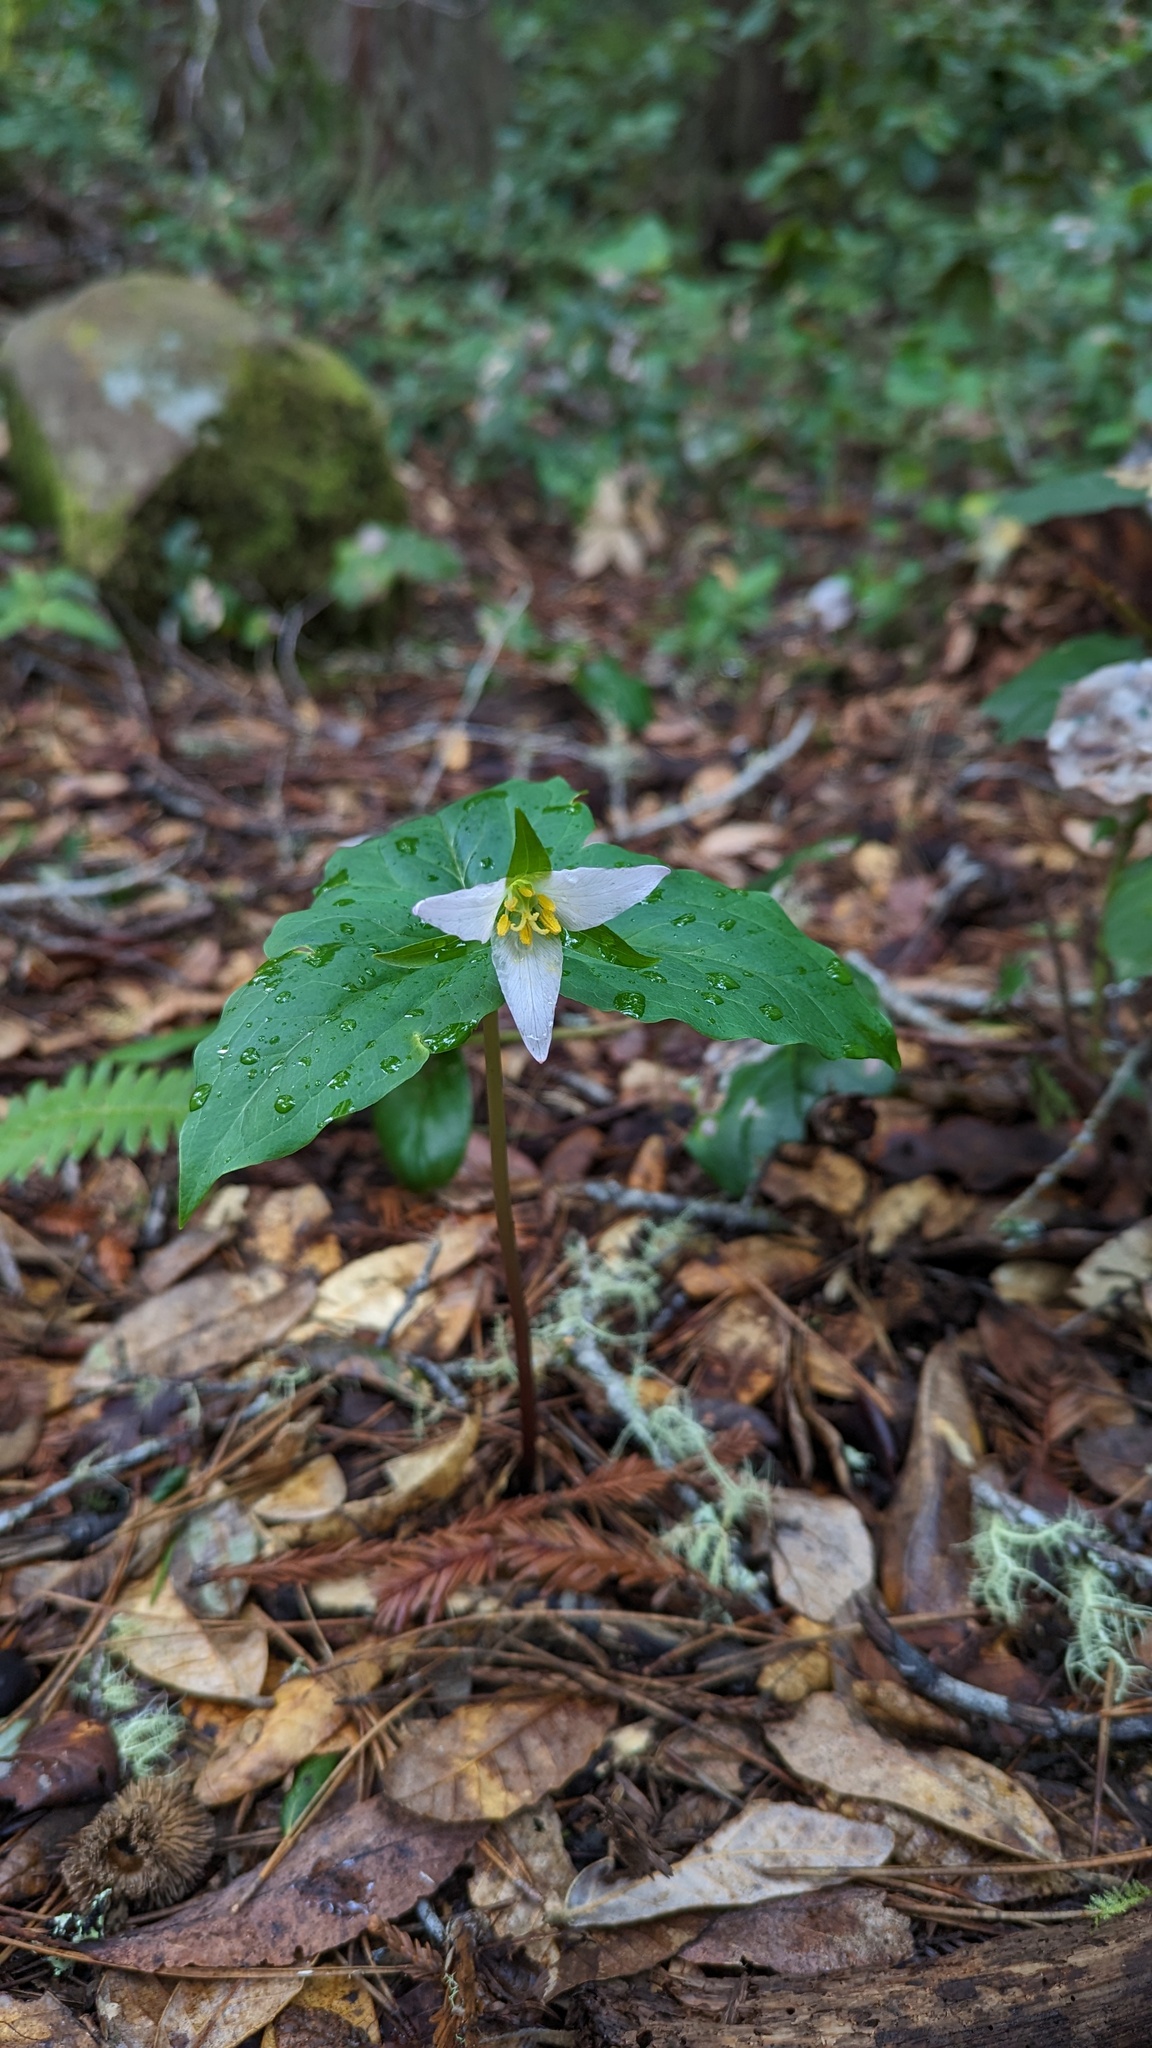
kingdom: Plantae
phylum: Tracheophyta
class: Liliopsida
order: Liliales
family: Melanthiaceae
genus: Trillium
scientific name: Trillium ovatum
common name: Pacific trillium
